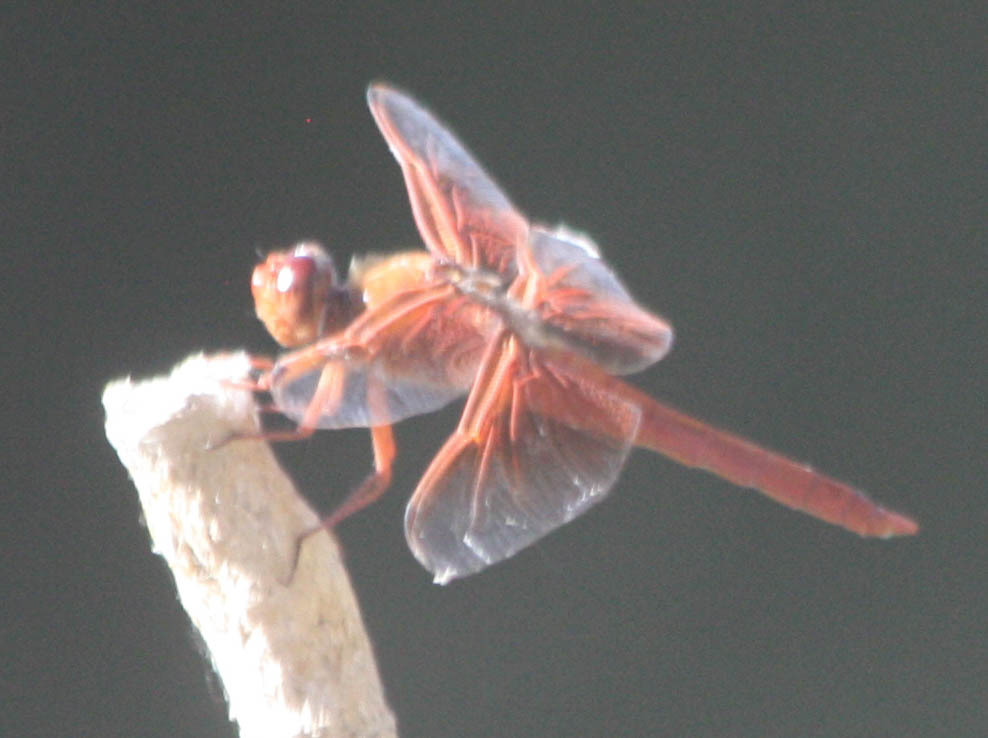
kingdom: Animalia
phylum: Arthropoda
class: Insecta
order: Odonata
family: Libellulidae
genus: Libellula
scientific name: Libellula saturata
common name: Flame skimmer
